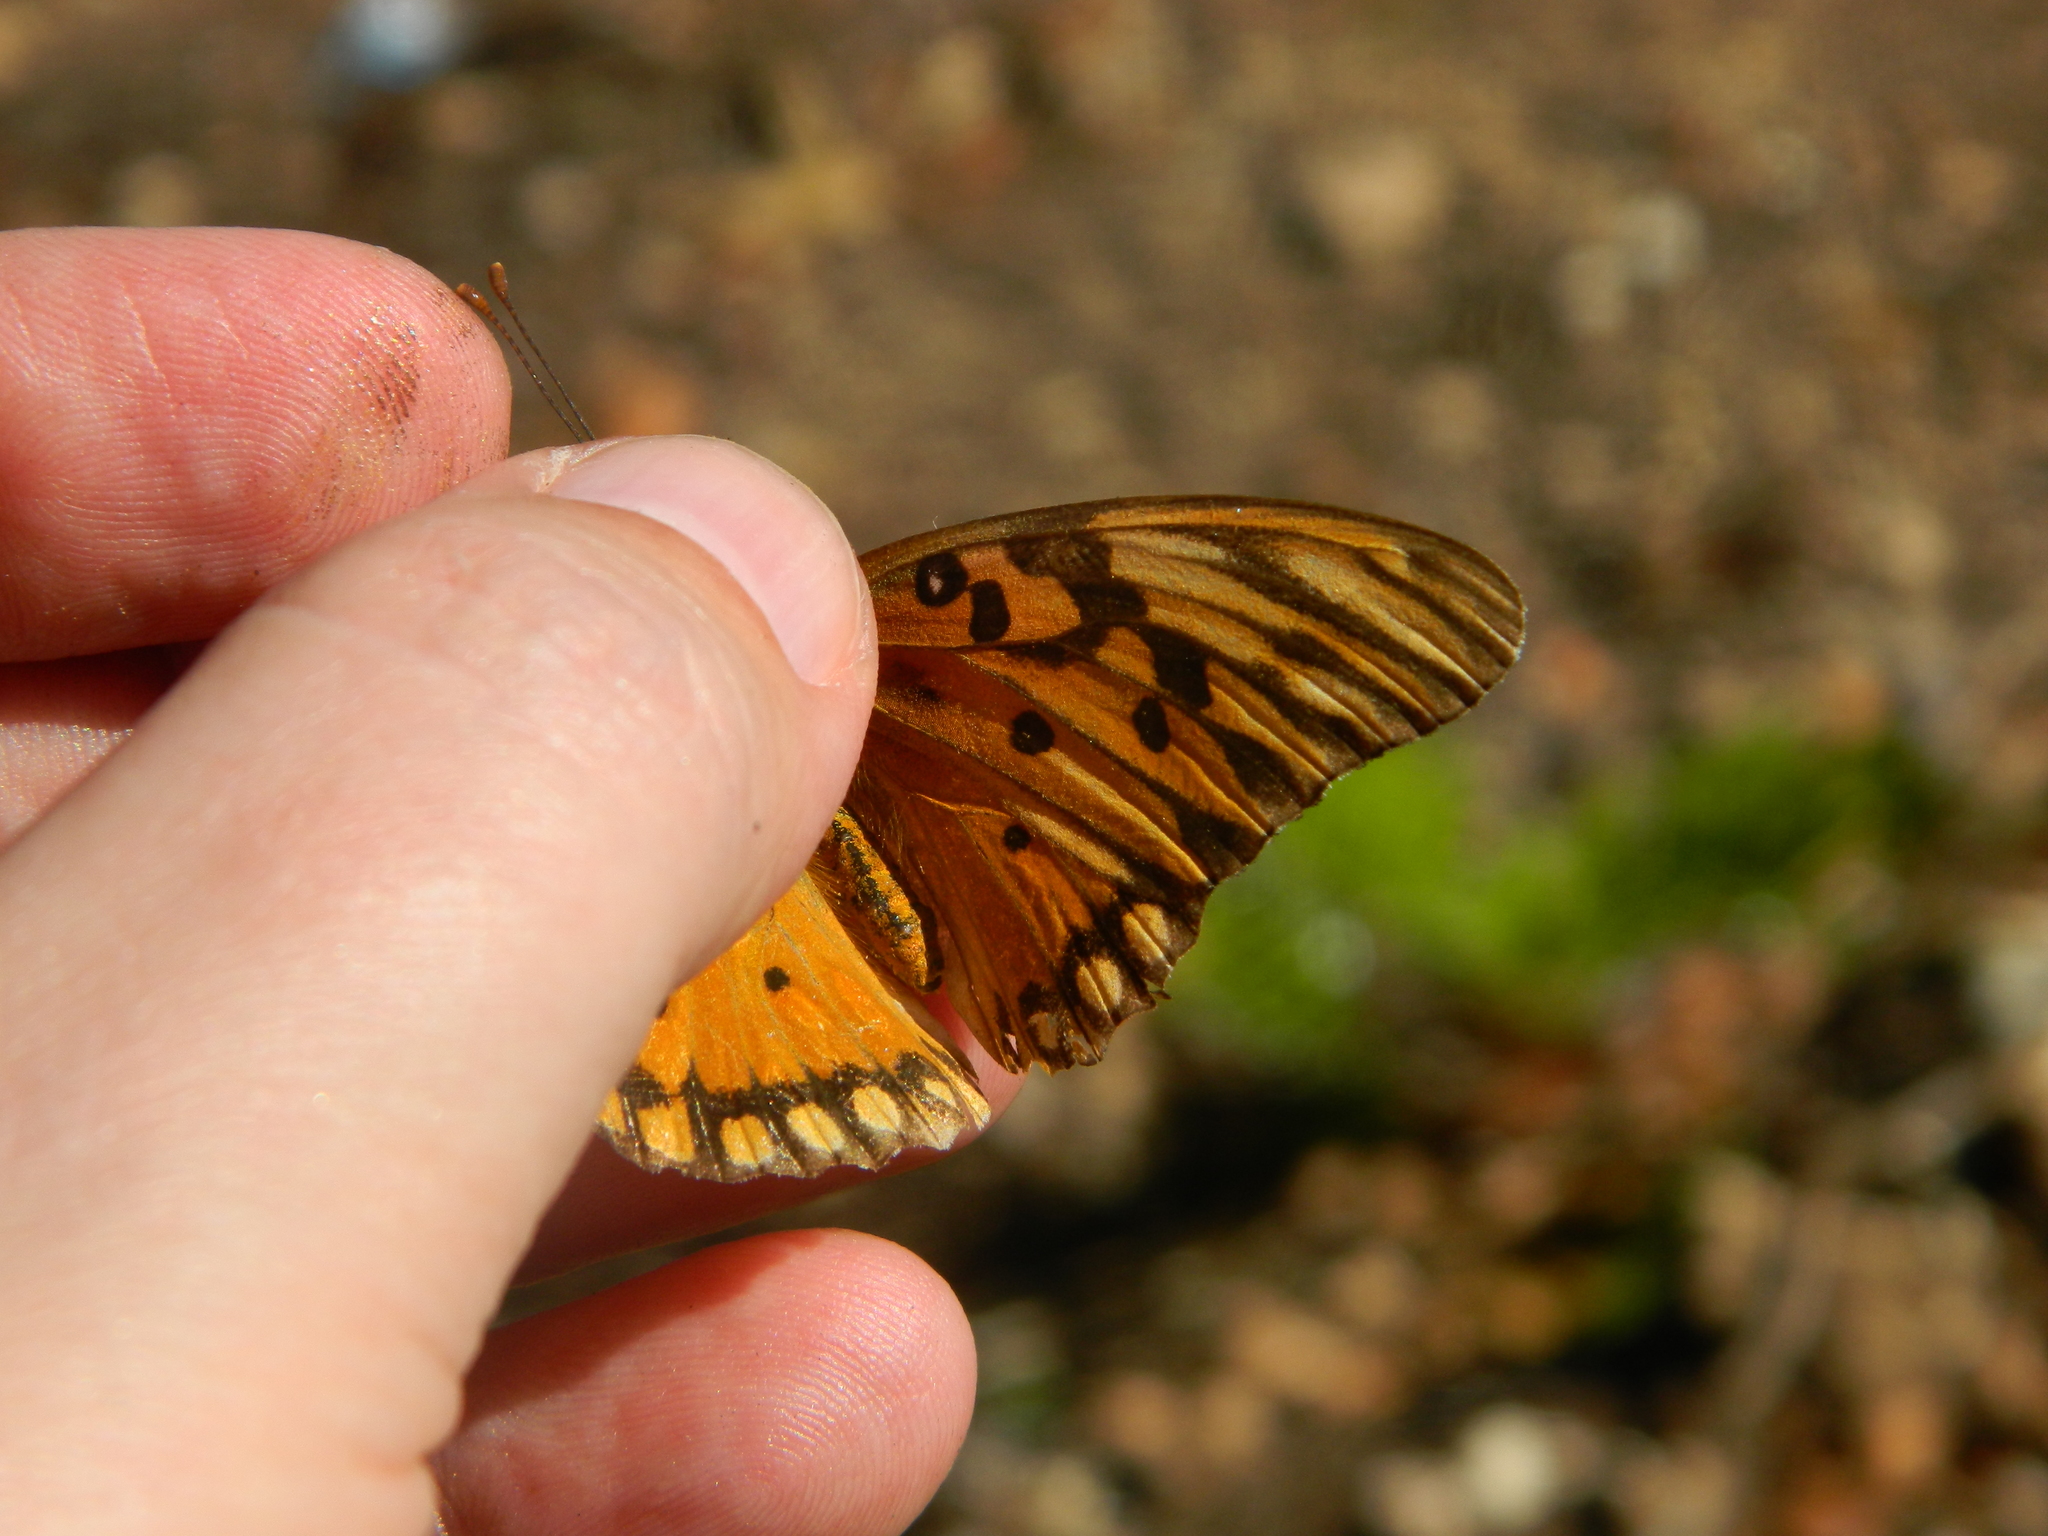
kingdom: Animalia
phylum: Arthropoda
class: Insecta
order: Lepidoptera
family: Nymphalidae
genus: Dione
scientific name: Dione vanillae
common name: Gulf fritillary
